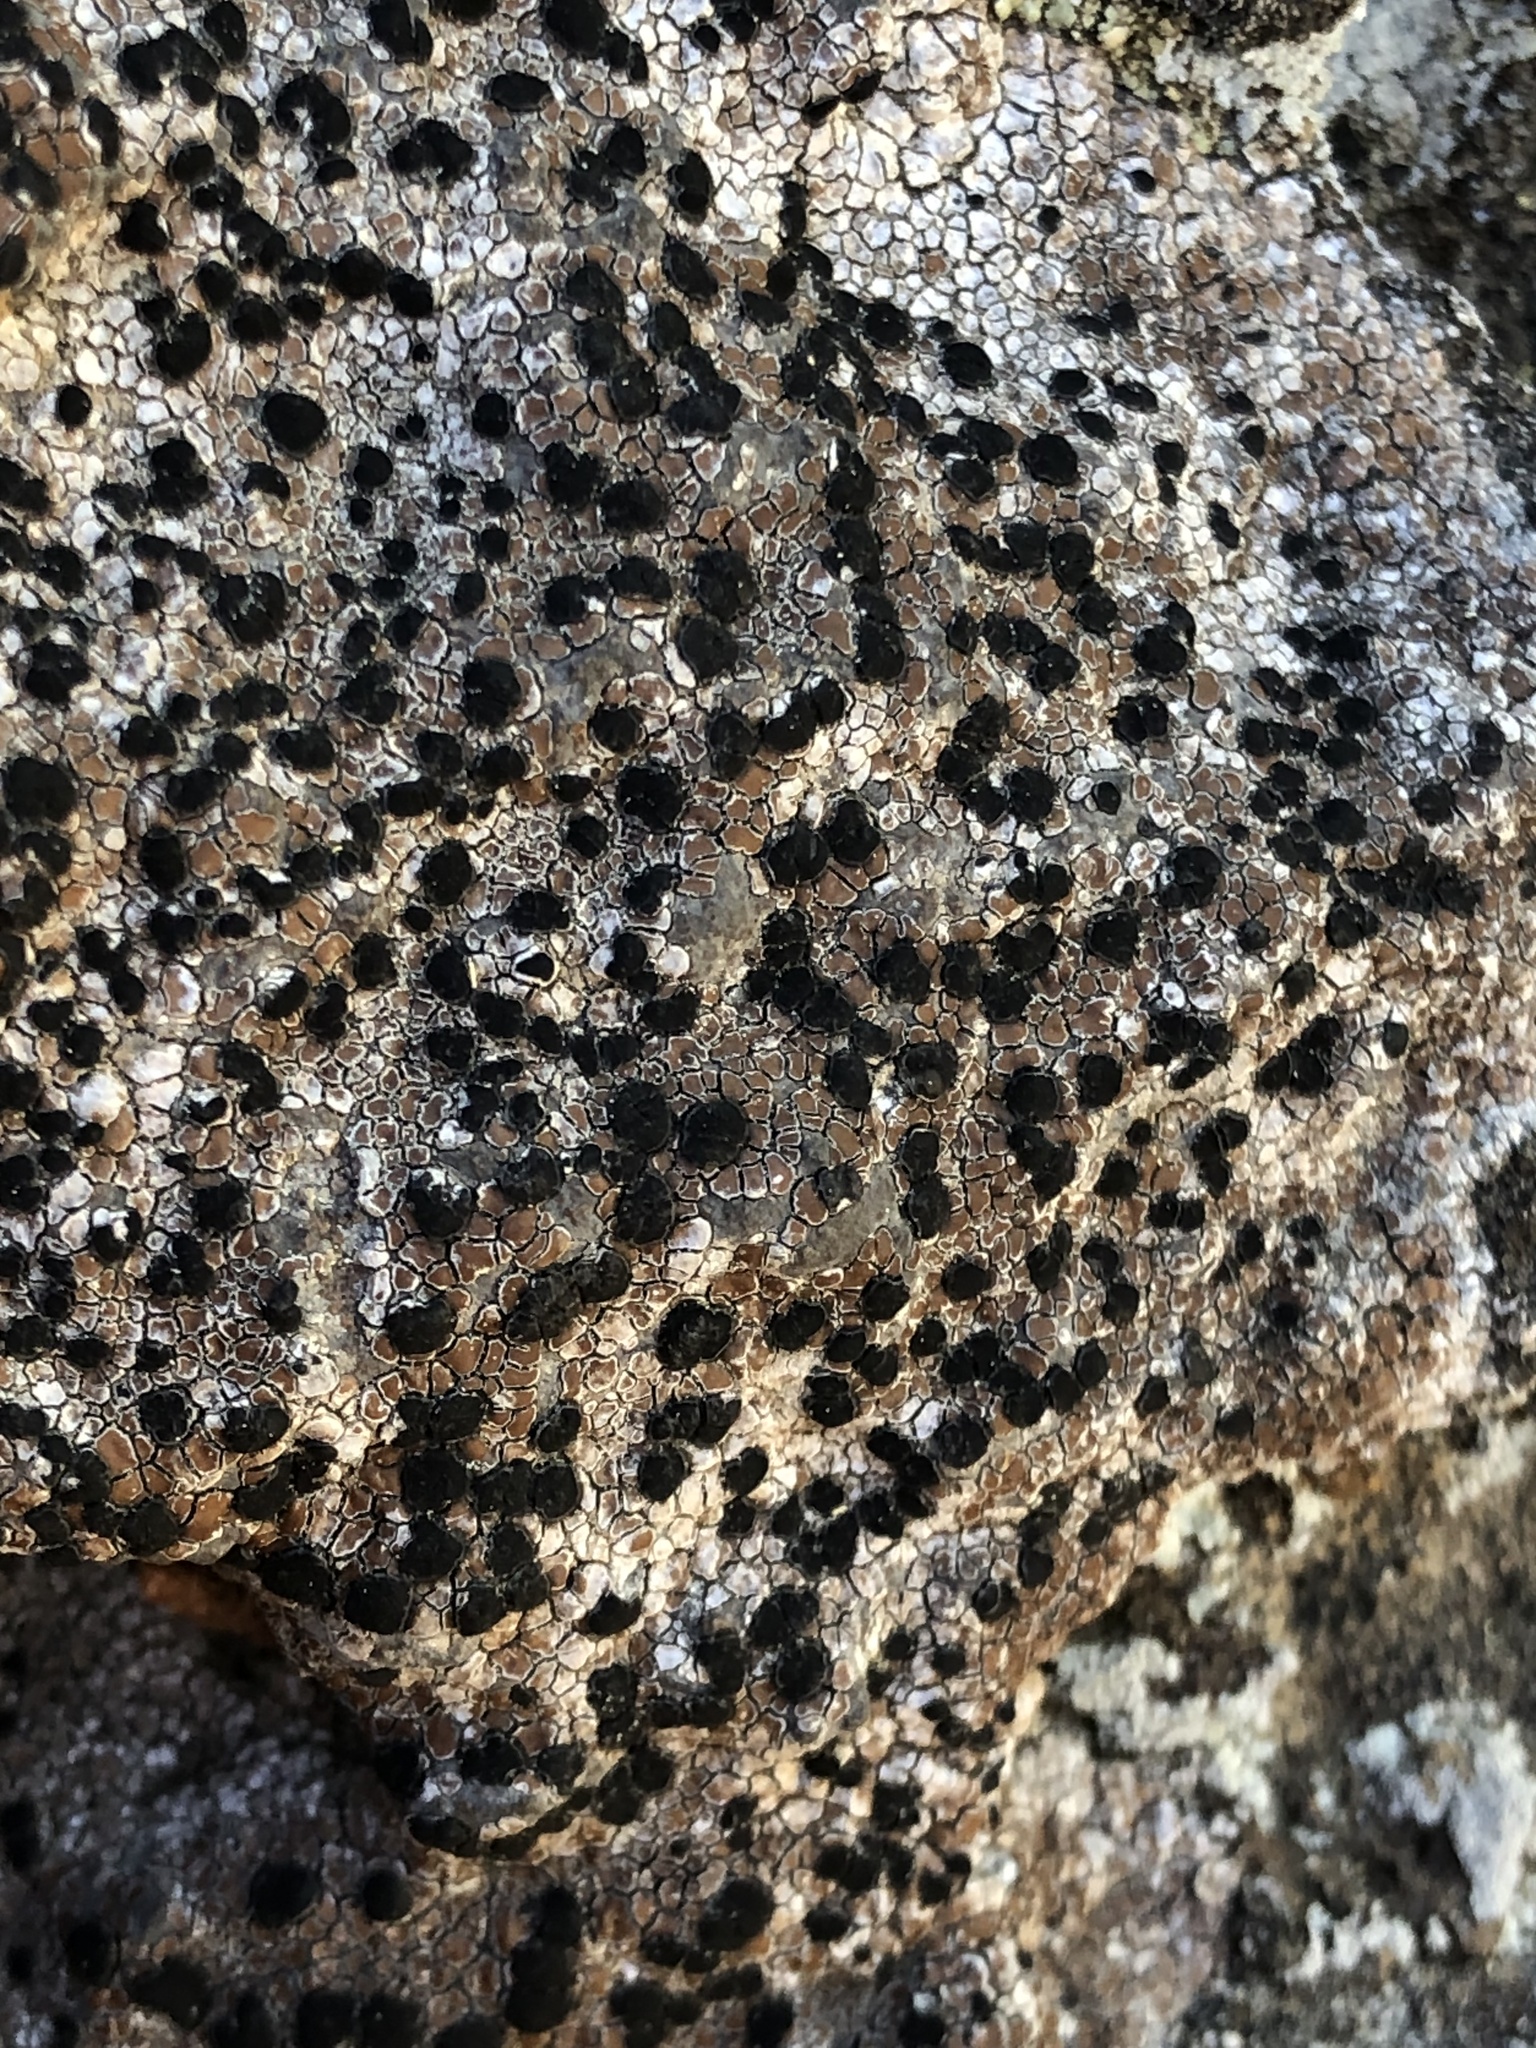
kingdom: Fungi
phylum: Ascomycota
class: Lecanoromycetes
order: Umbilicariales
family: Umbilicariaceae
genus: Umbilicaria
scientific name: Umbilicaria phaea
